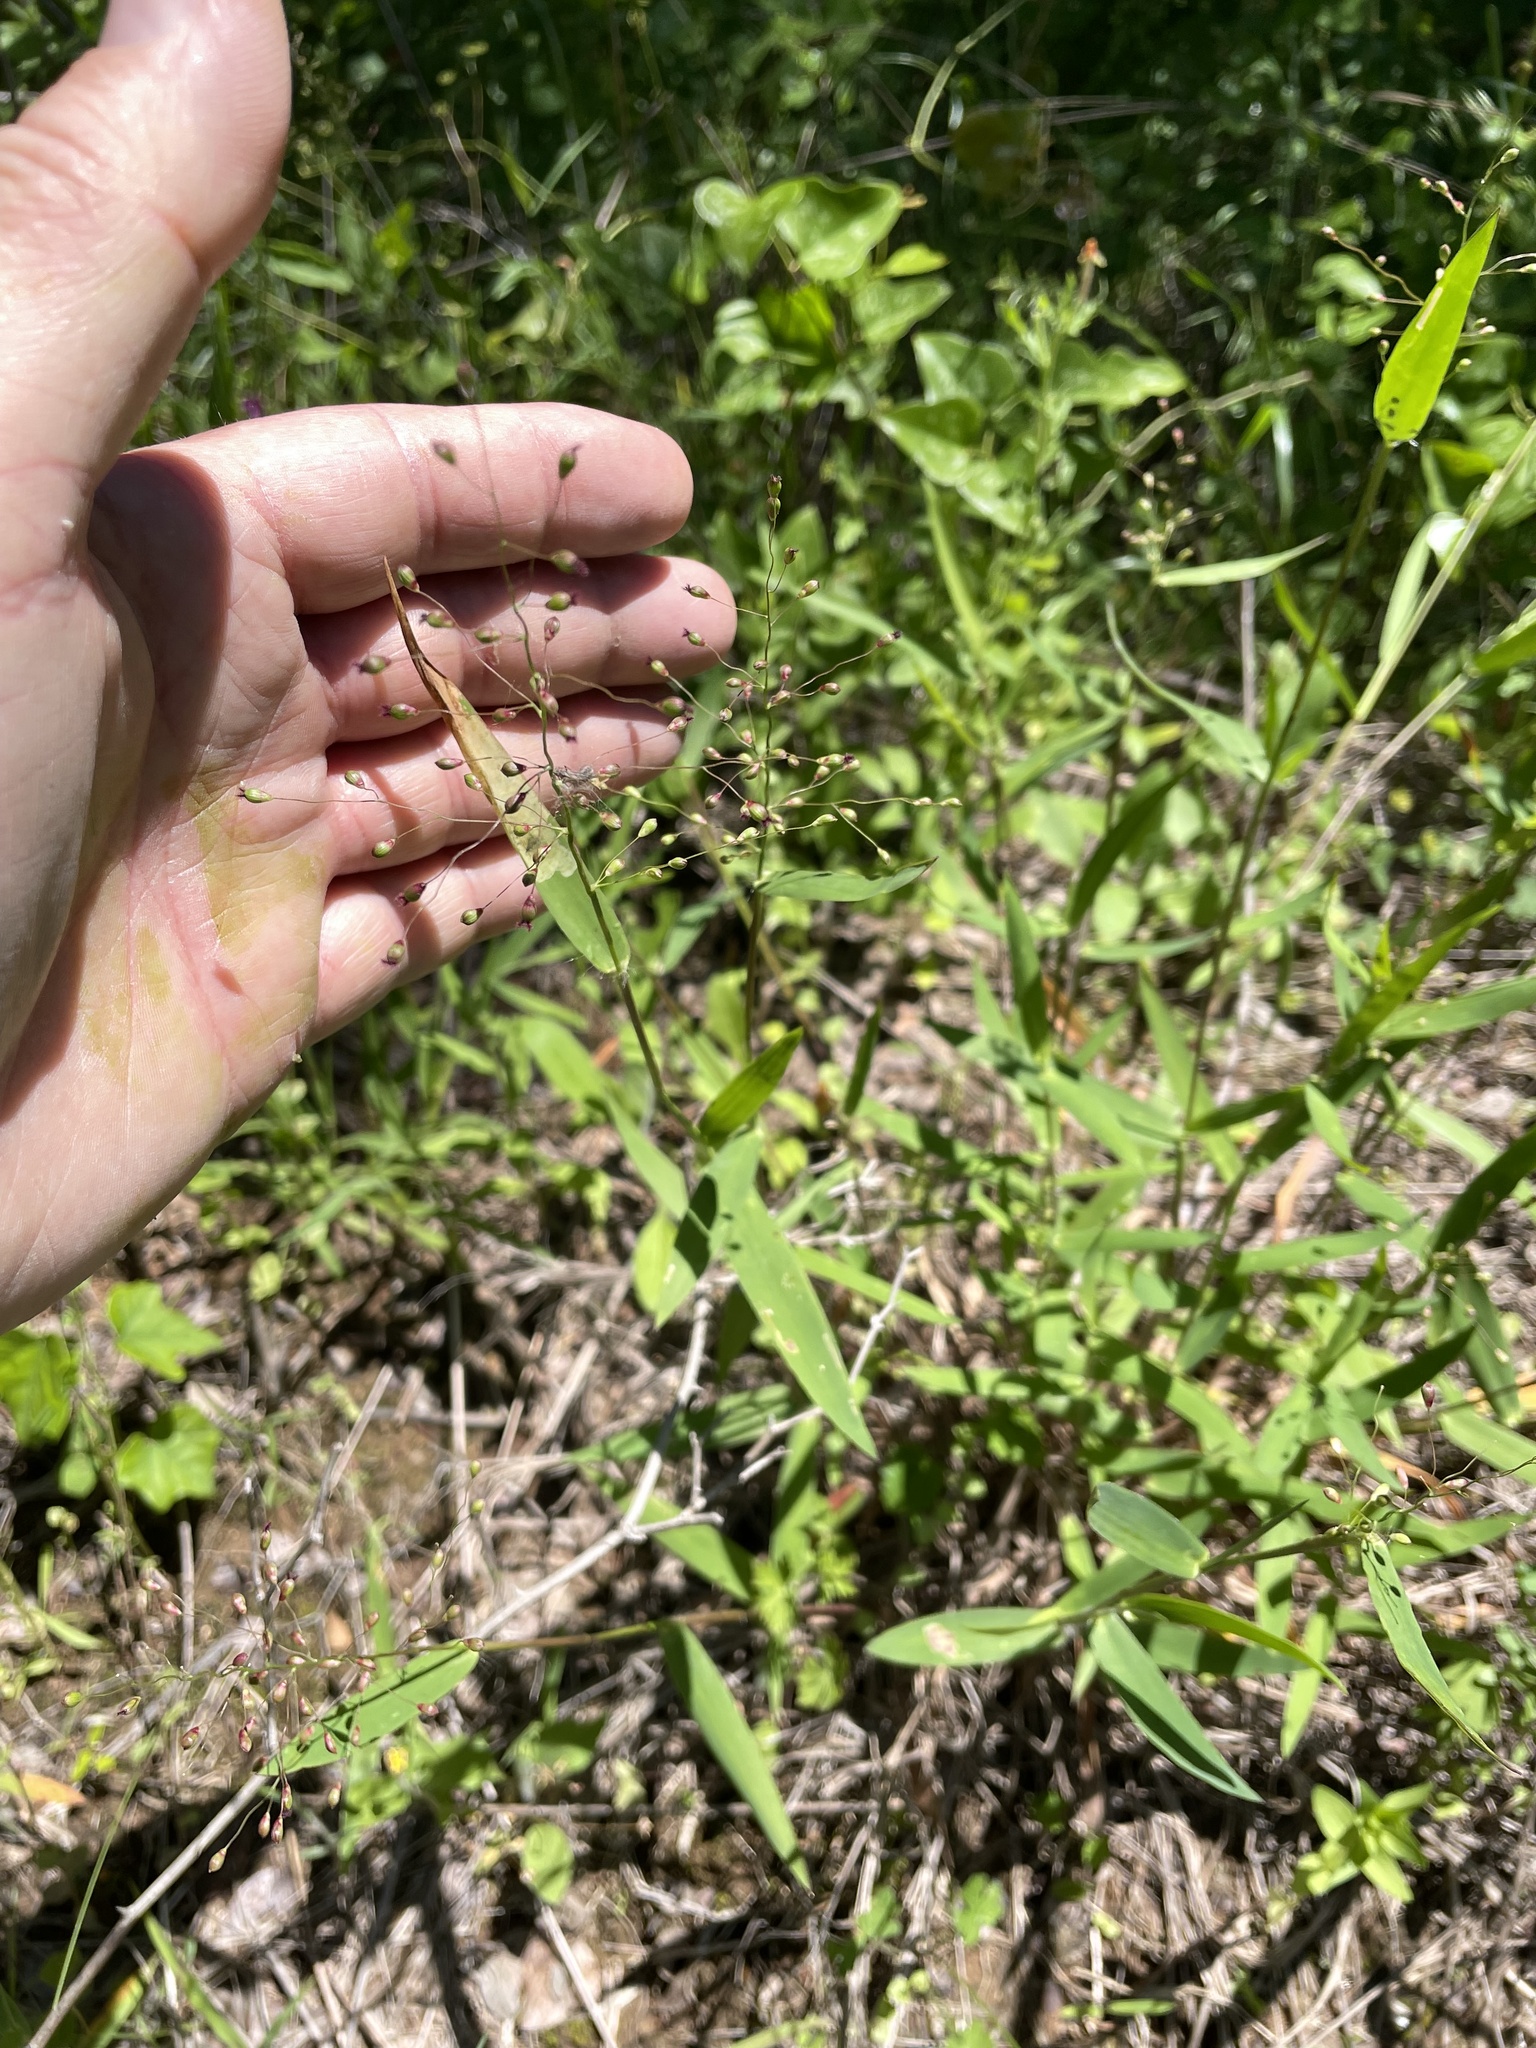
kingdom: Plantae
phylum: Tracheophyta
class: Liliopsida
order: Poales
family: Poaceae
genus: Dichanthelium
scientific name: Dichanthelium oligosanthes
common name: Few-anther obscuregrass
